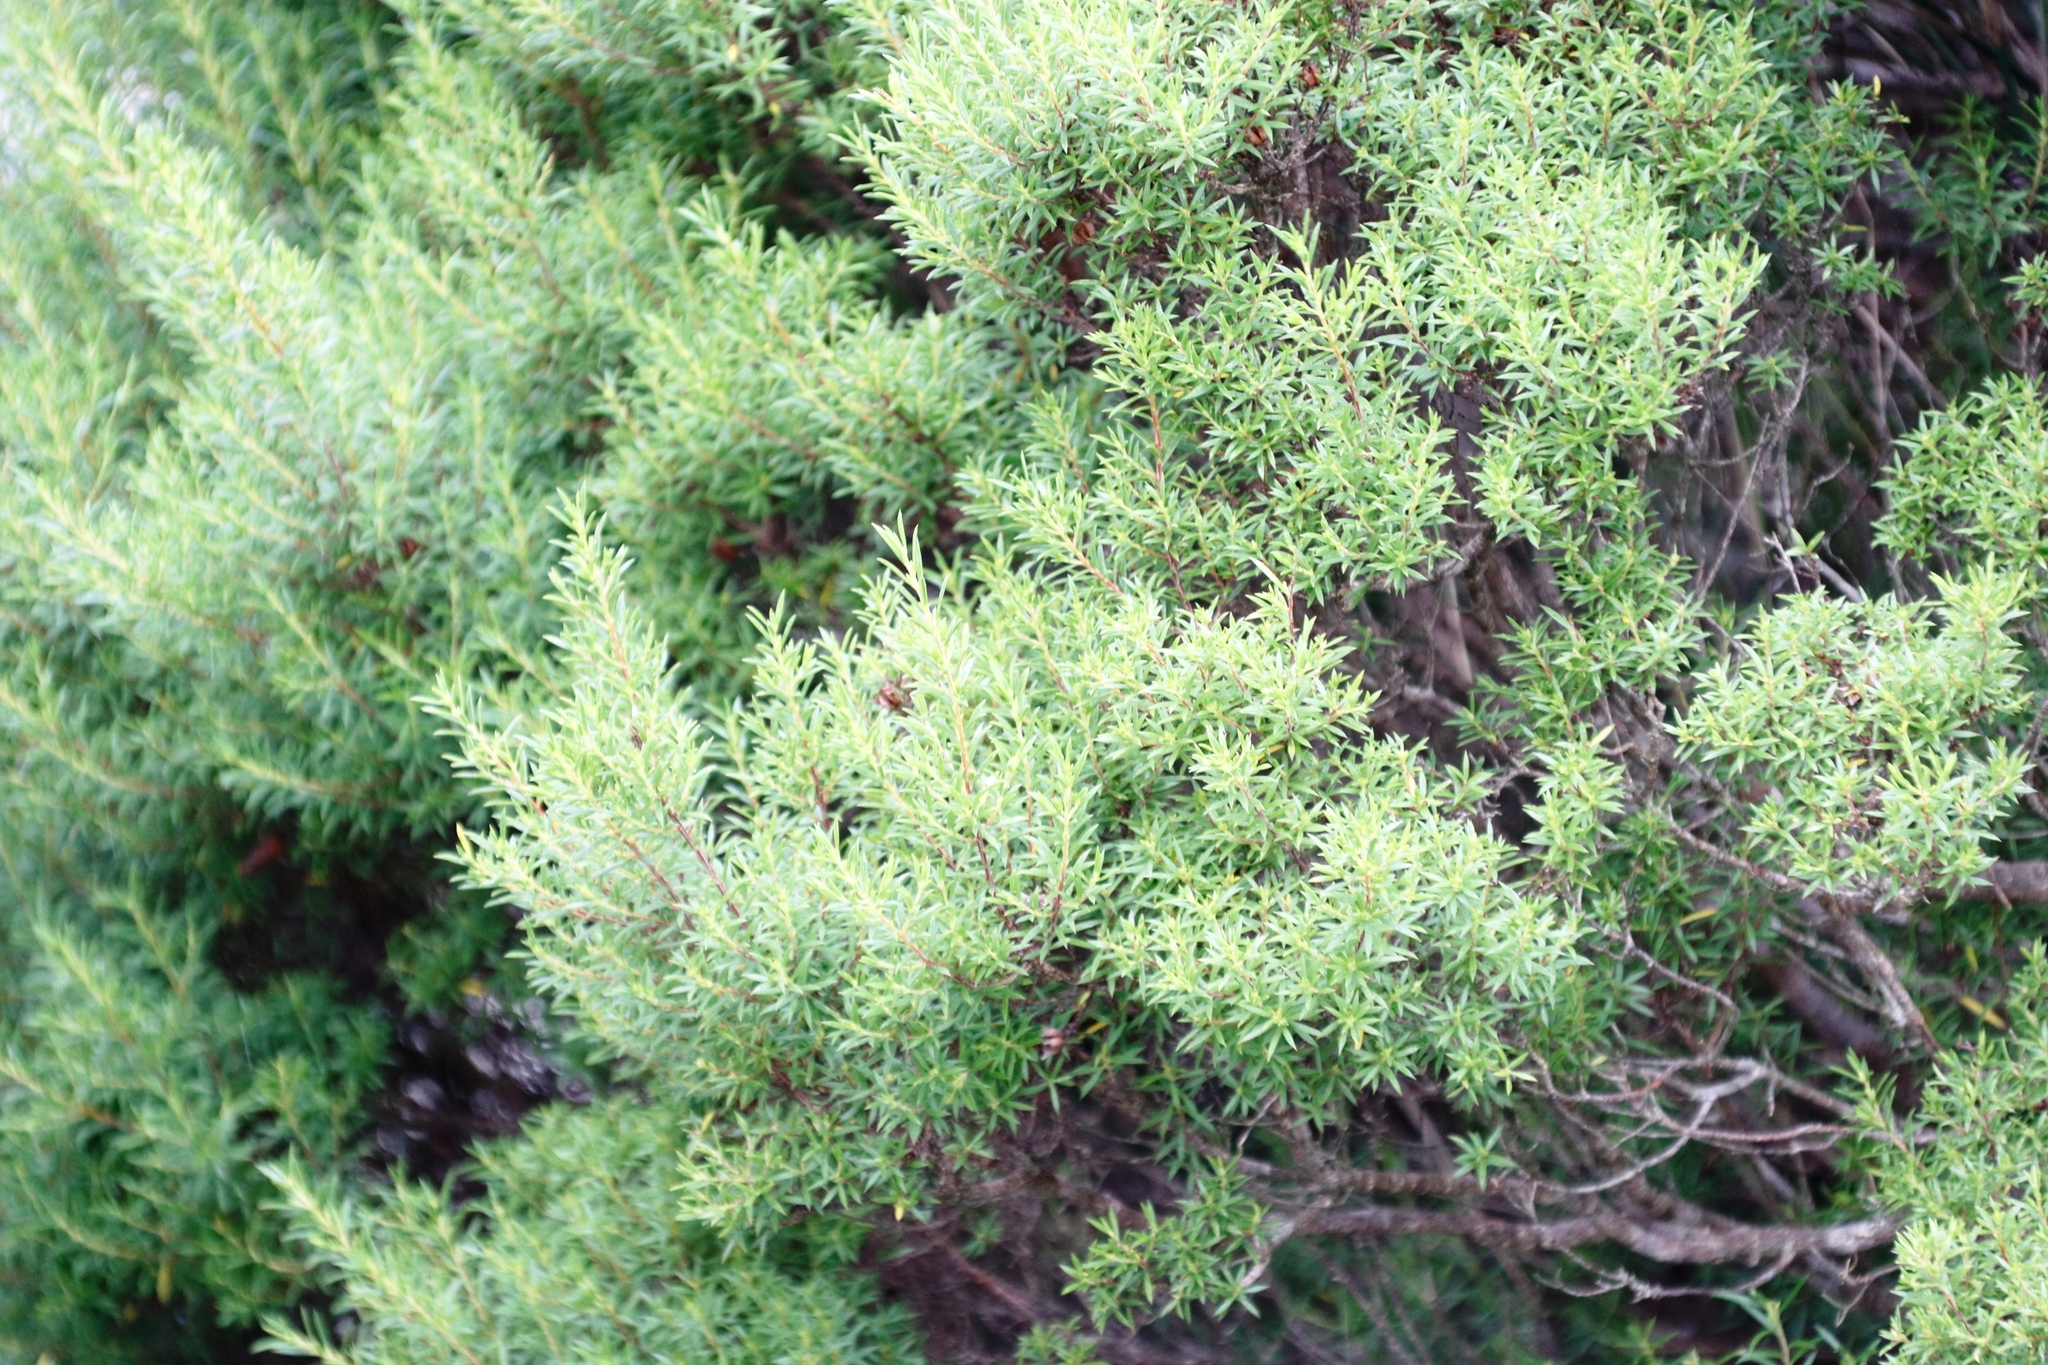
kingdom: Plantae
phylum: Tracheophyta
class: Magnoliopsida
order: Sapindales
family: Rutaceae
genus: Coleonema
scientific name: Coleonema album
